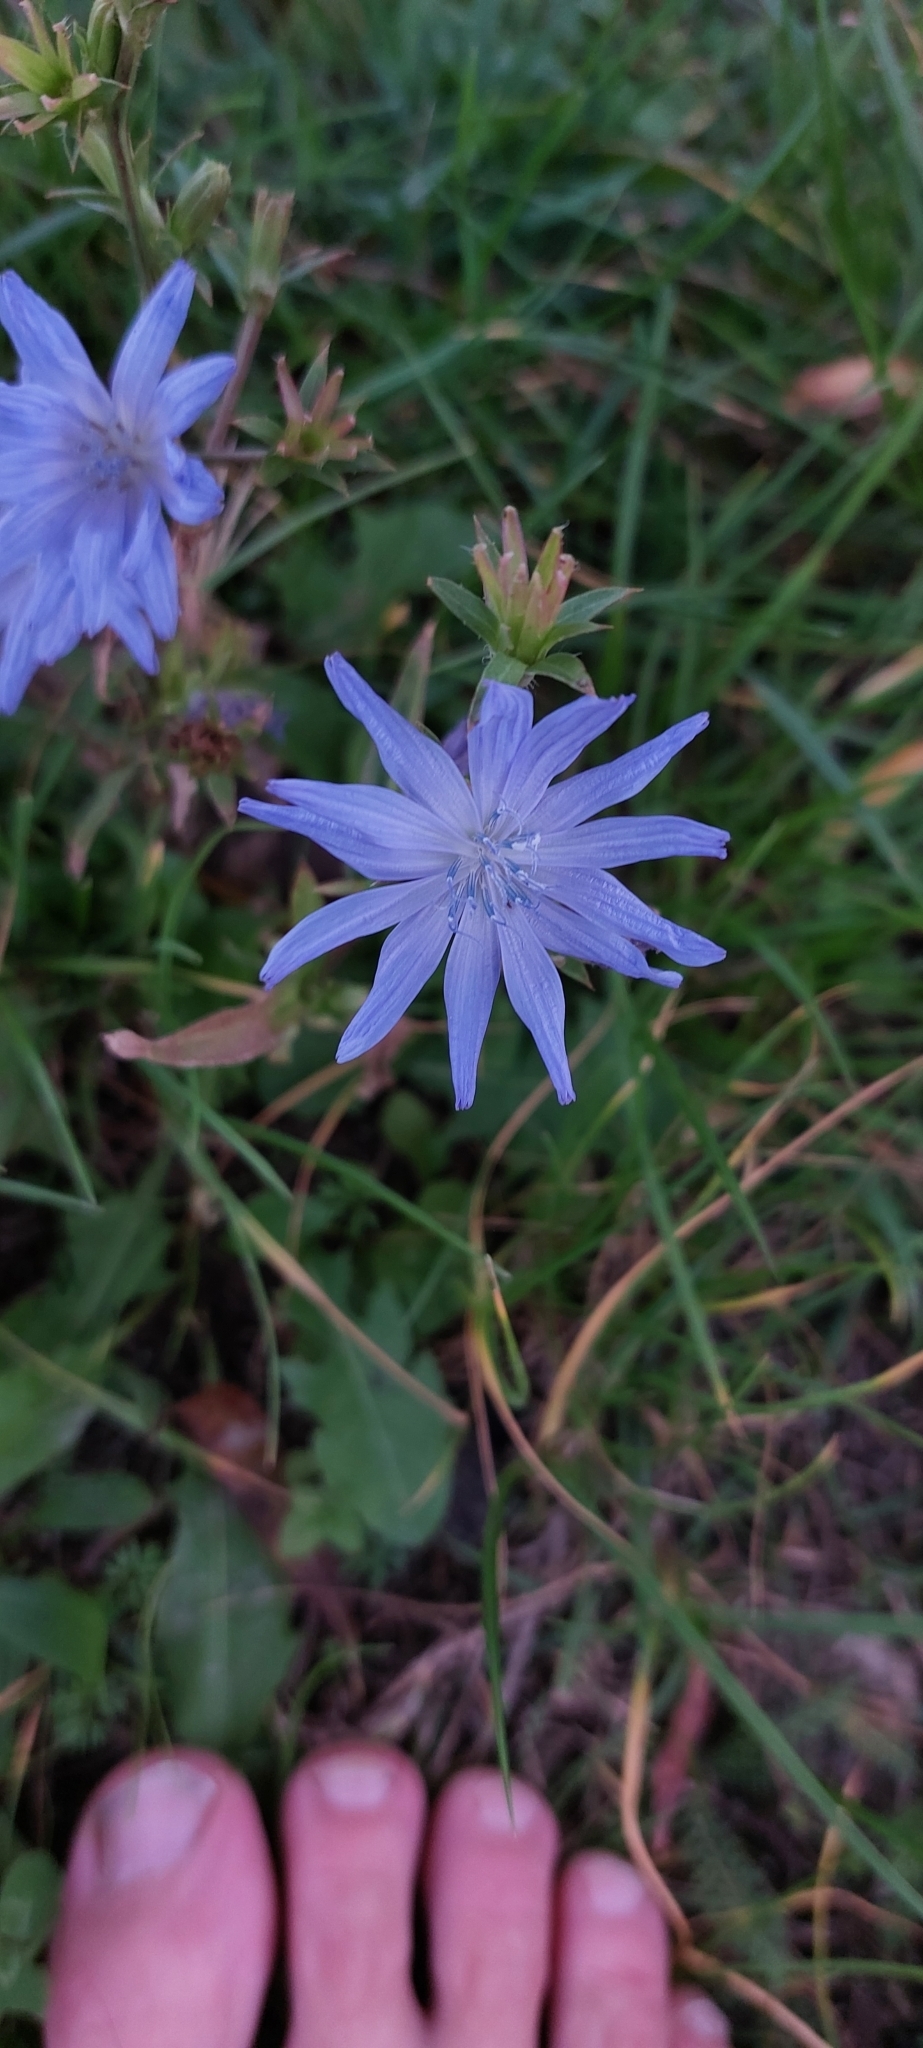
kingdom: Plantae
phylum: Tracheophyta
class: Magnoliopsida
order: Asterales
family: Asteraceae
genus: Cichorium
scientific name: Cichorium intybus
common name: Chicory
